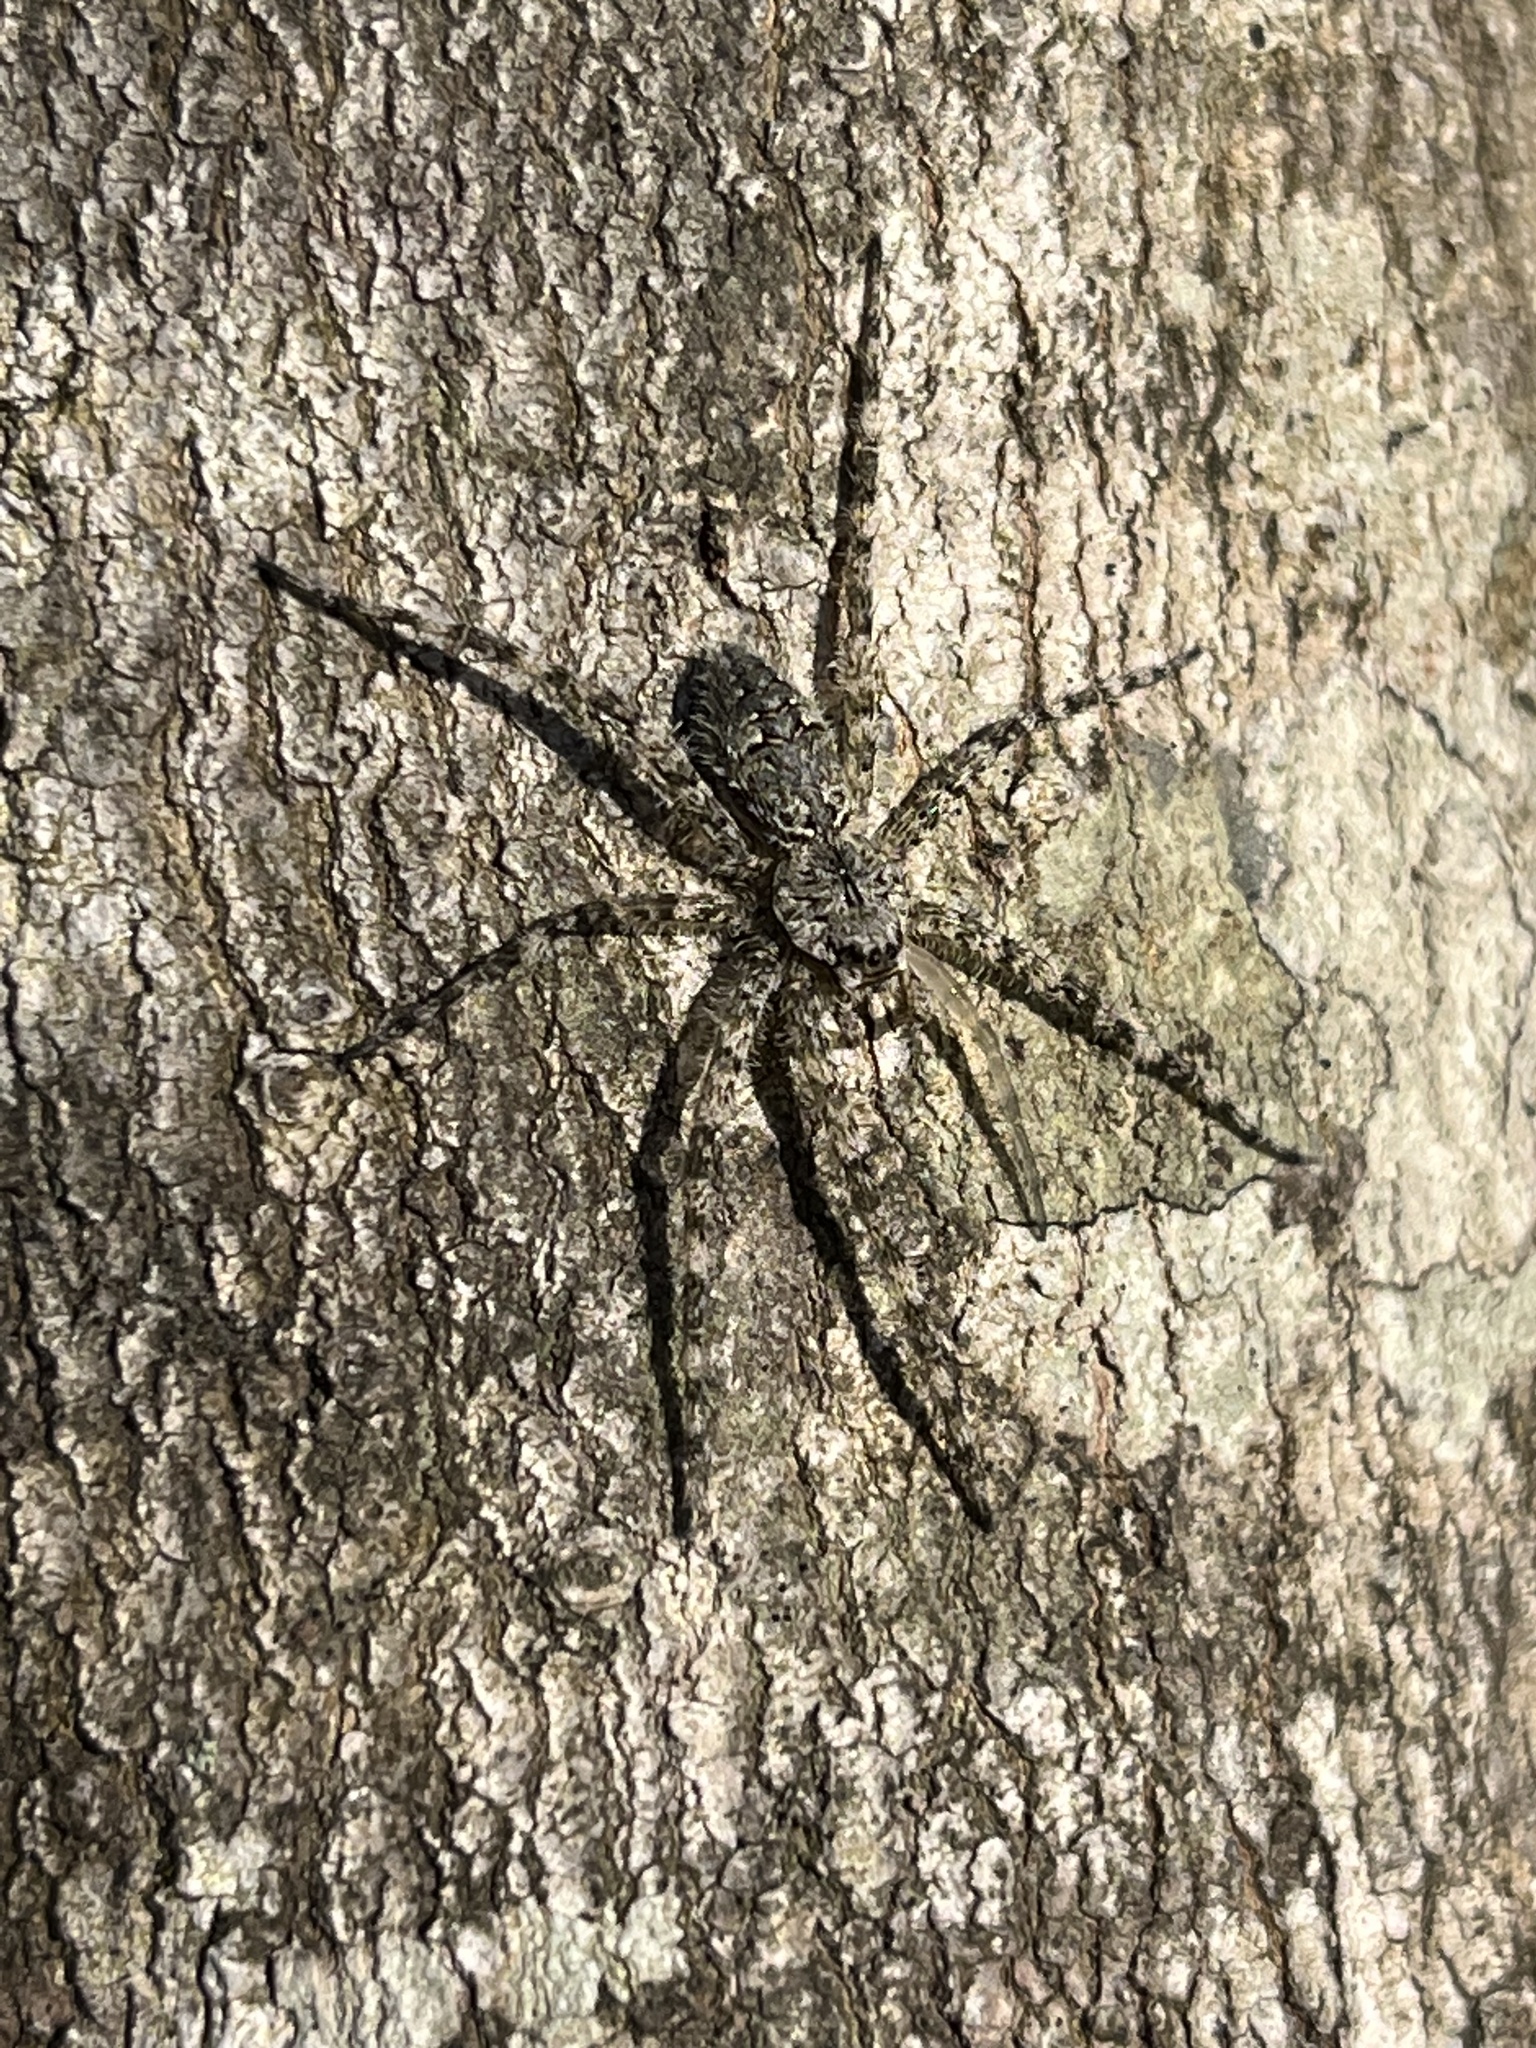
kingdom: Animalia
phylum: Arthropoda
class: Arachnida
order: Araneae
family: Pisauridae
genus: Dolomedes
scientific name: Dolomedes albineus
